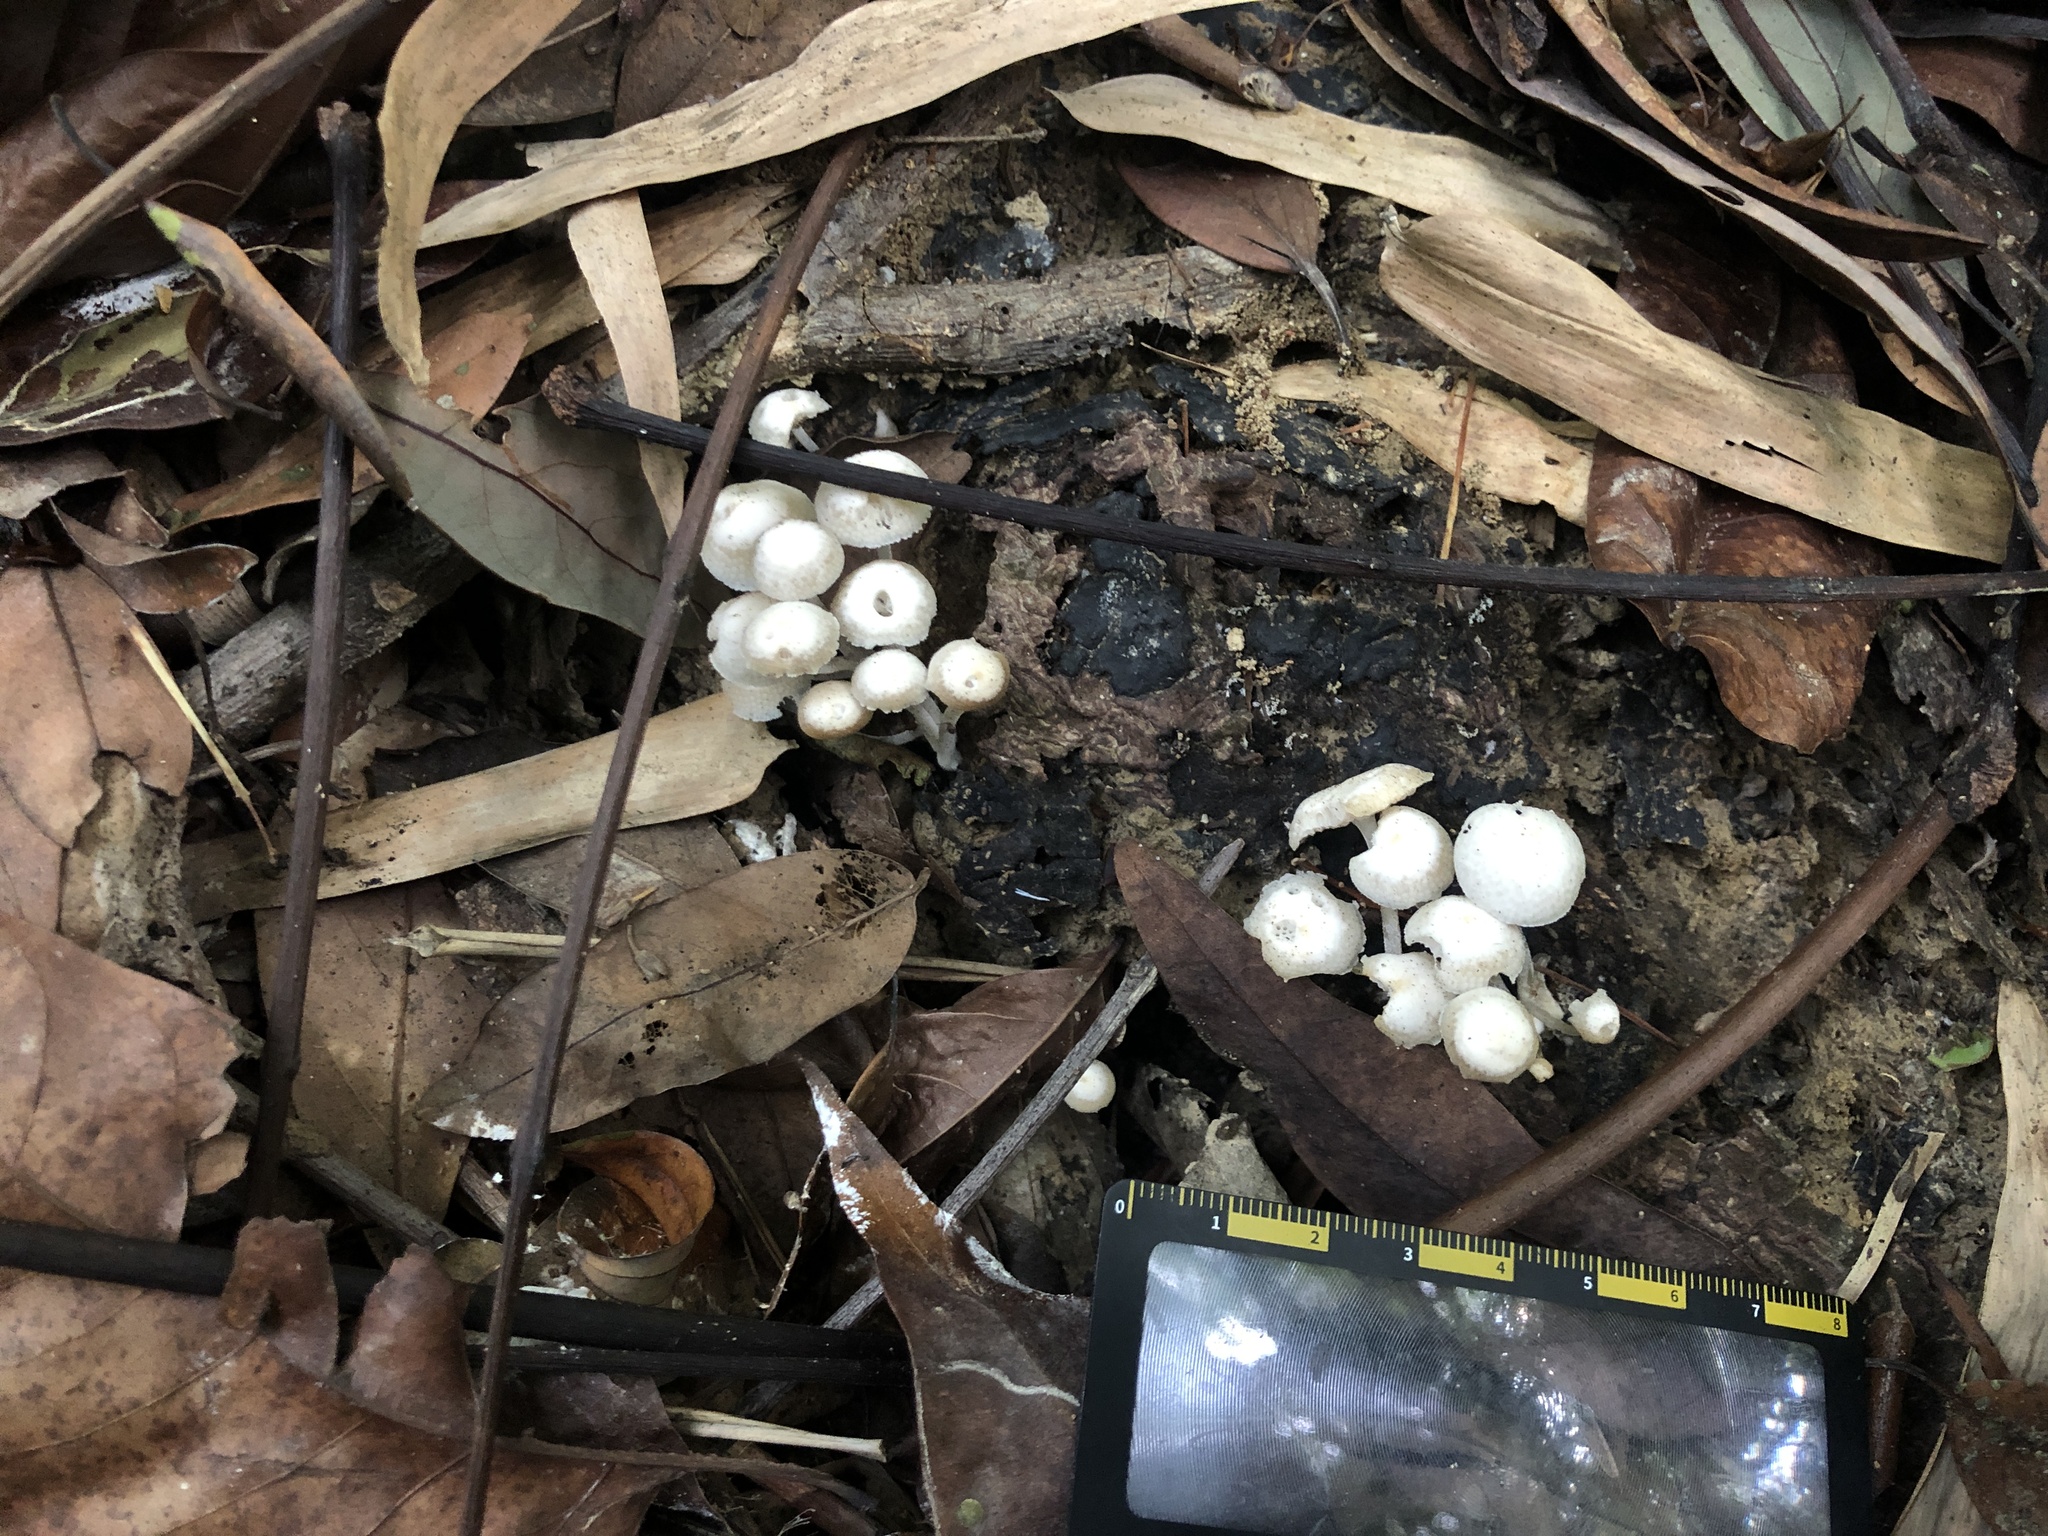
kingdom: Fungi
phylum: Basidiomycota
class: Agaricomycetes
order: Agaricales
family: Mycenaceae
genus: Filoboletus
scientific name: Filoboletus manipularis
